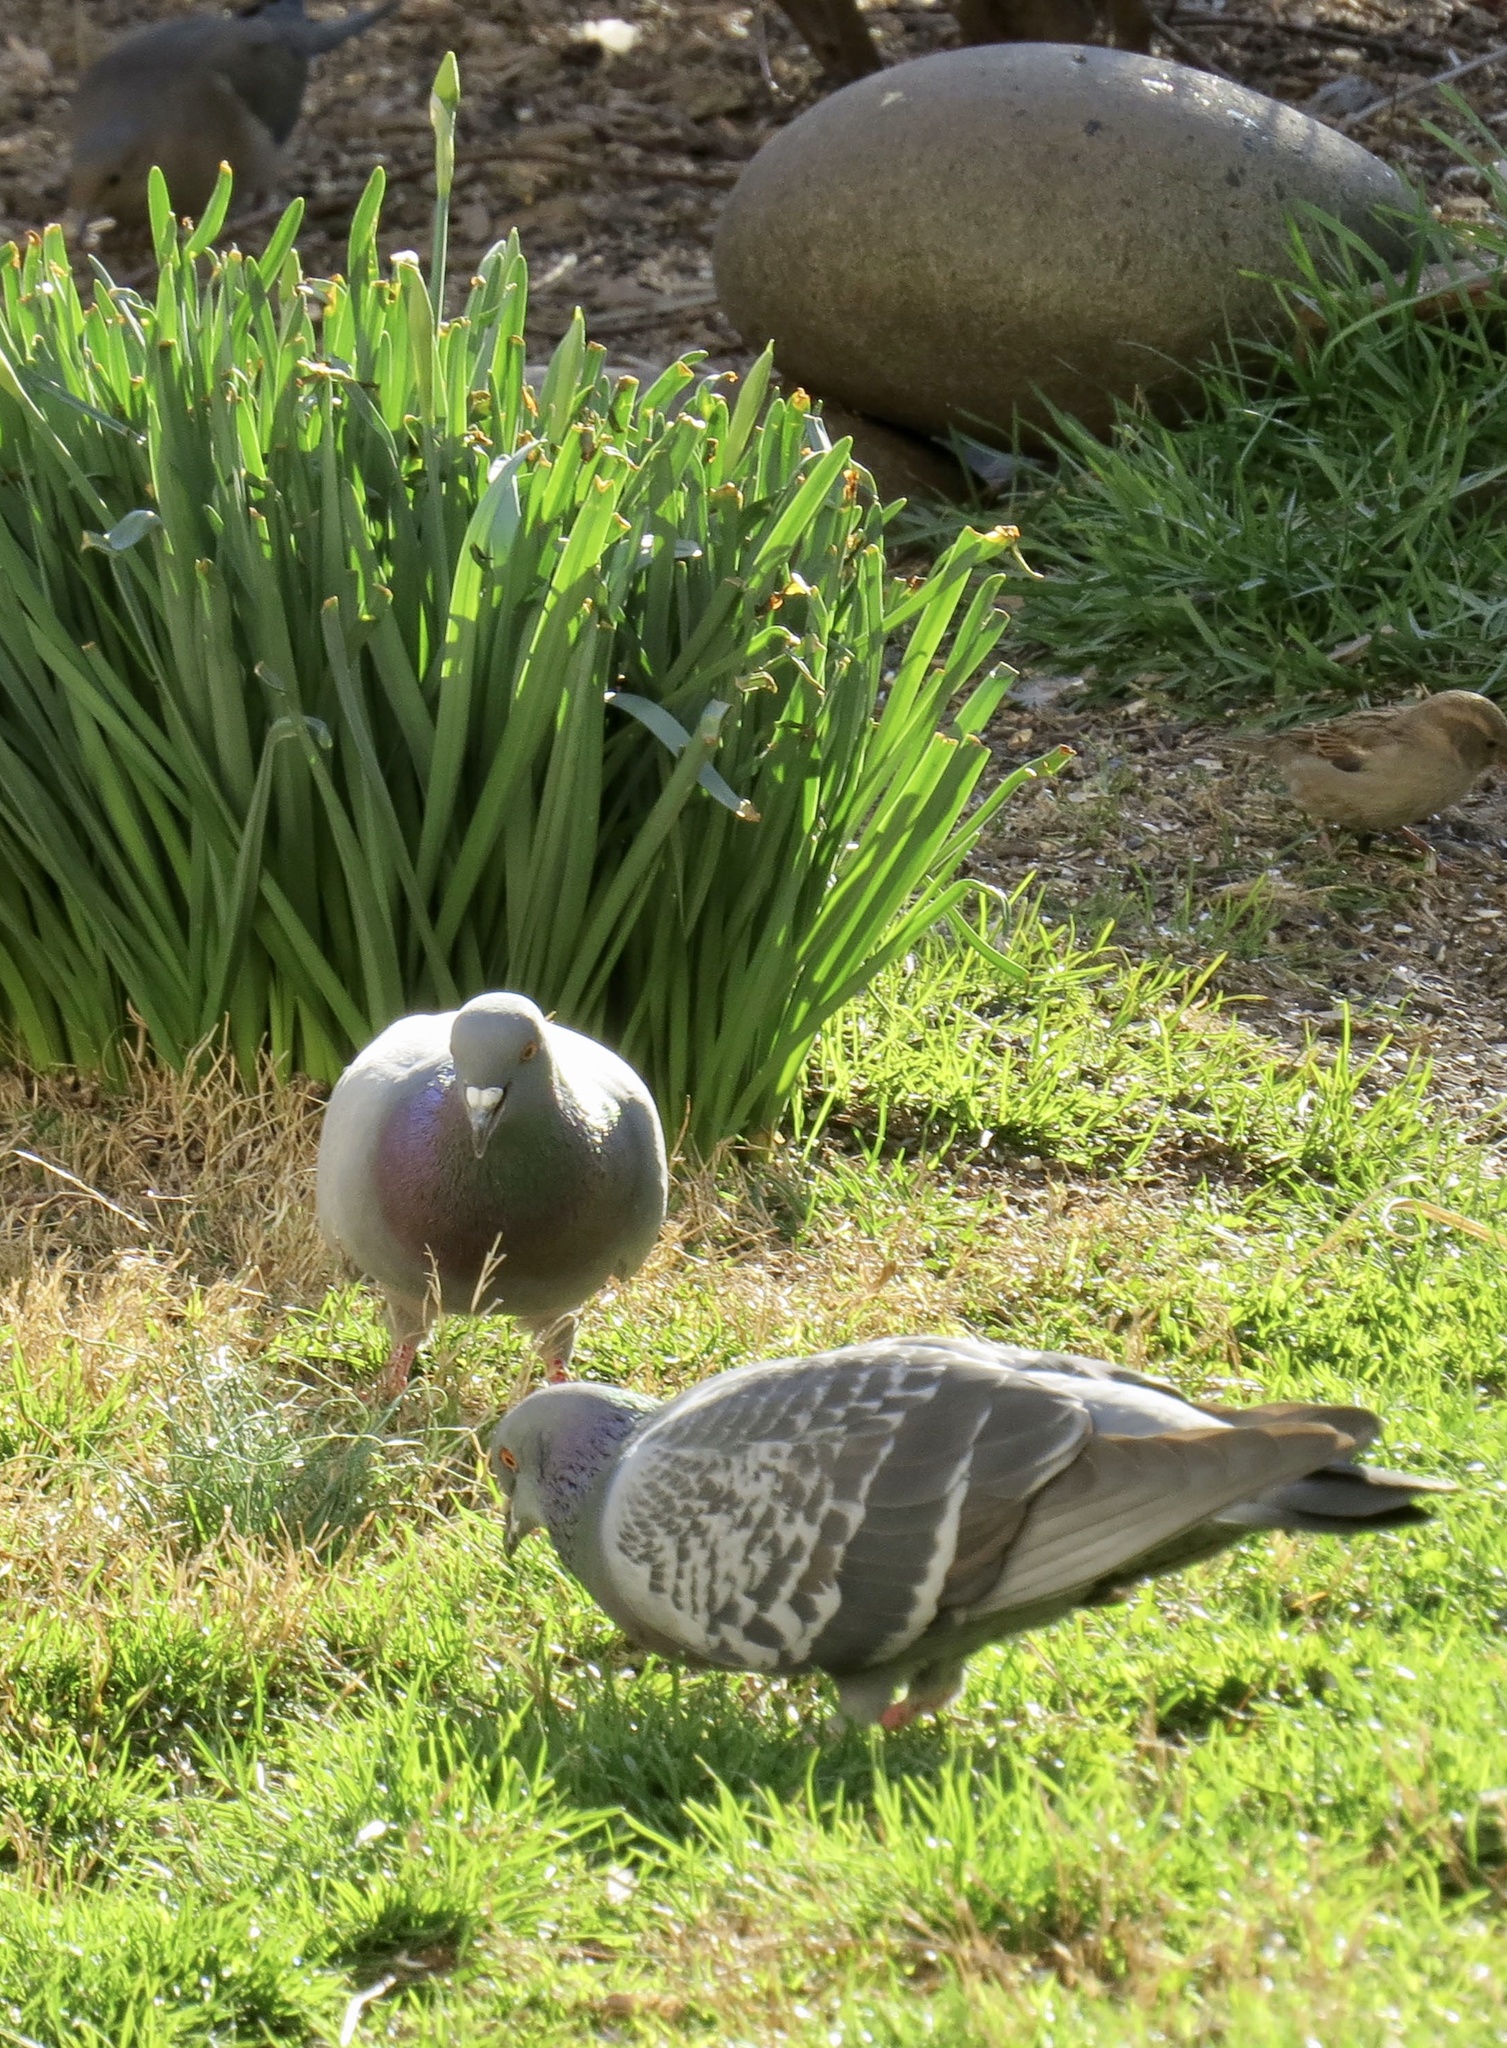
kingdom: Animalia
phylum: Chordata
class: Aves
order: Columbiformes
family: Columbidae
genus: Columba
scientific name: Columba livia
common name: Rock pigeon
